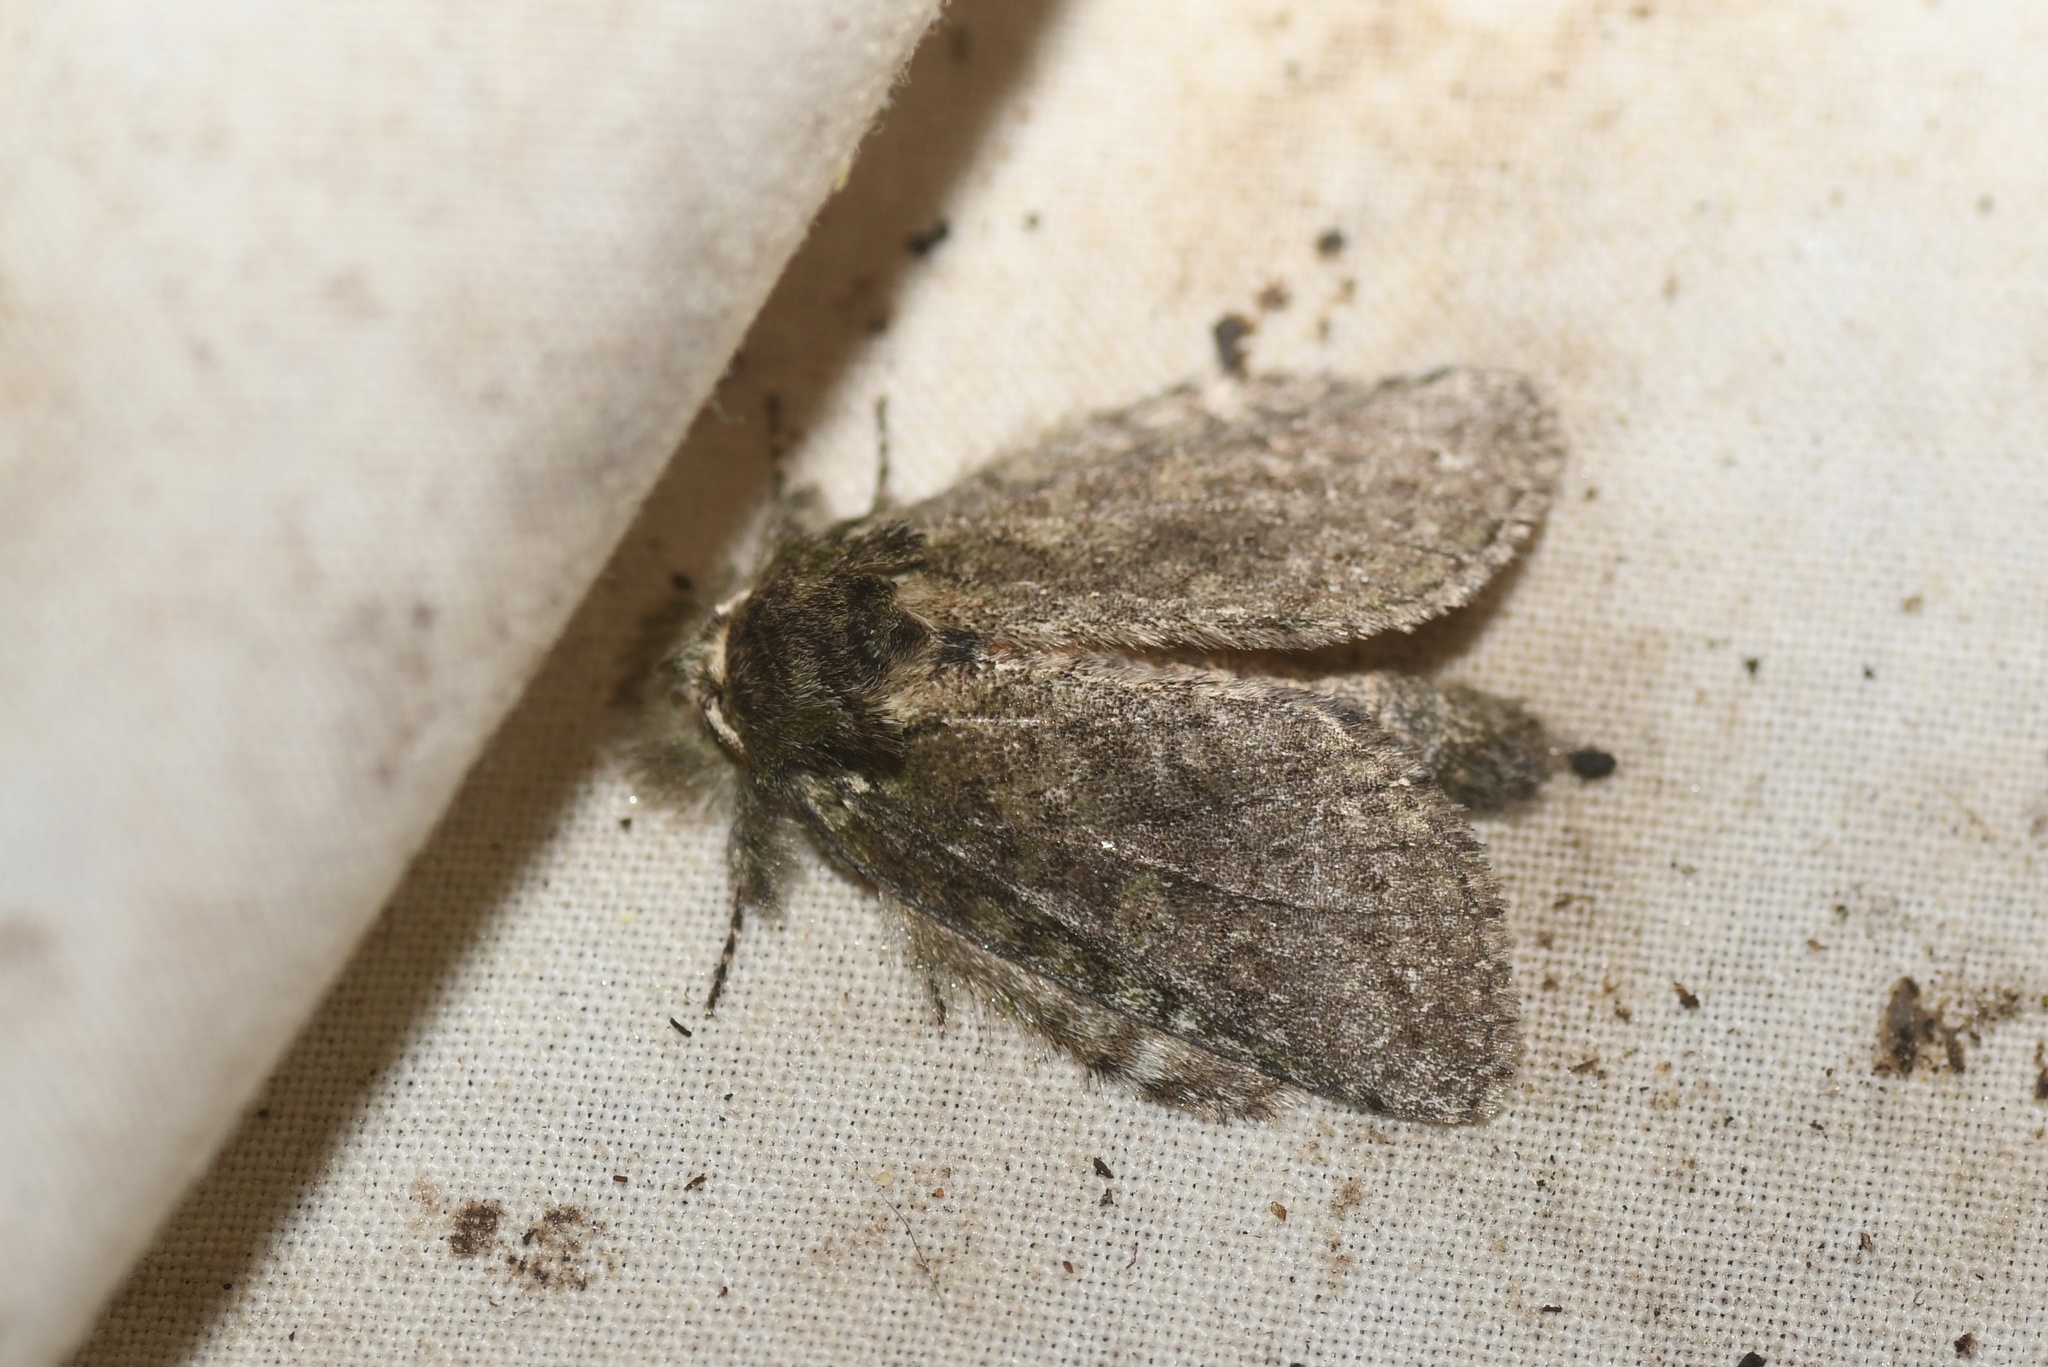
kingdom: Animalia
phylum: Arthropoda
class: Insecta
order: Lepidoptera
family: Notodontidae
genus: Disphragis
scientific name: Disphragis Cecrita guttivitta
